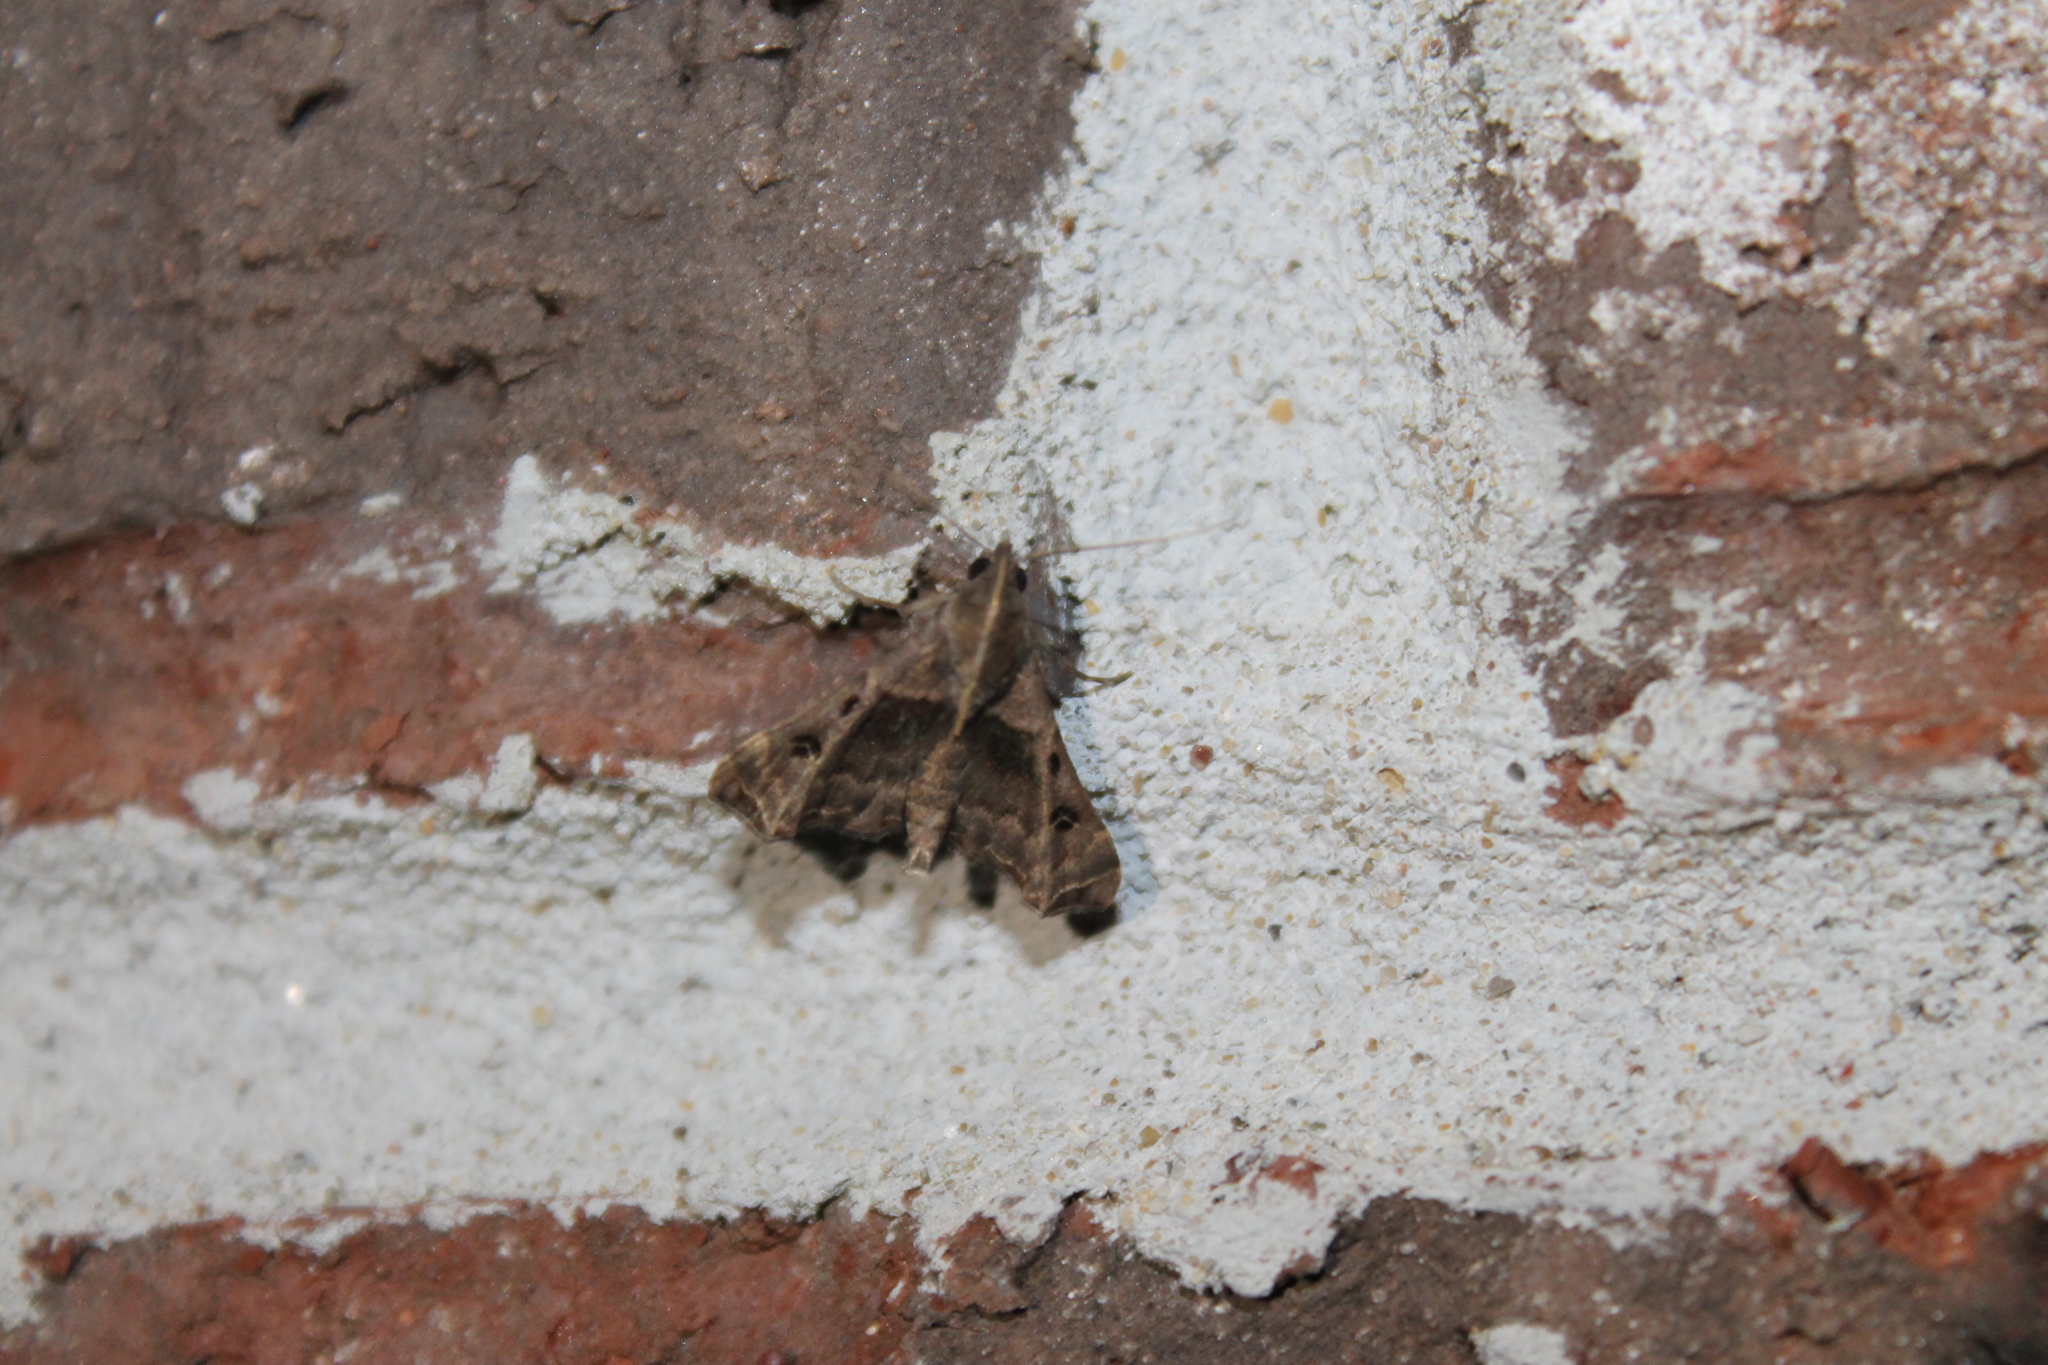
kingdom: Animalia
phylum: Arthropoda
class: Insecta
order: Lepidoptera
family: Erebidae
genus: Palthis
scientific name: Palthis asopialis
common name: Faint-spotted palthis moth
